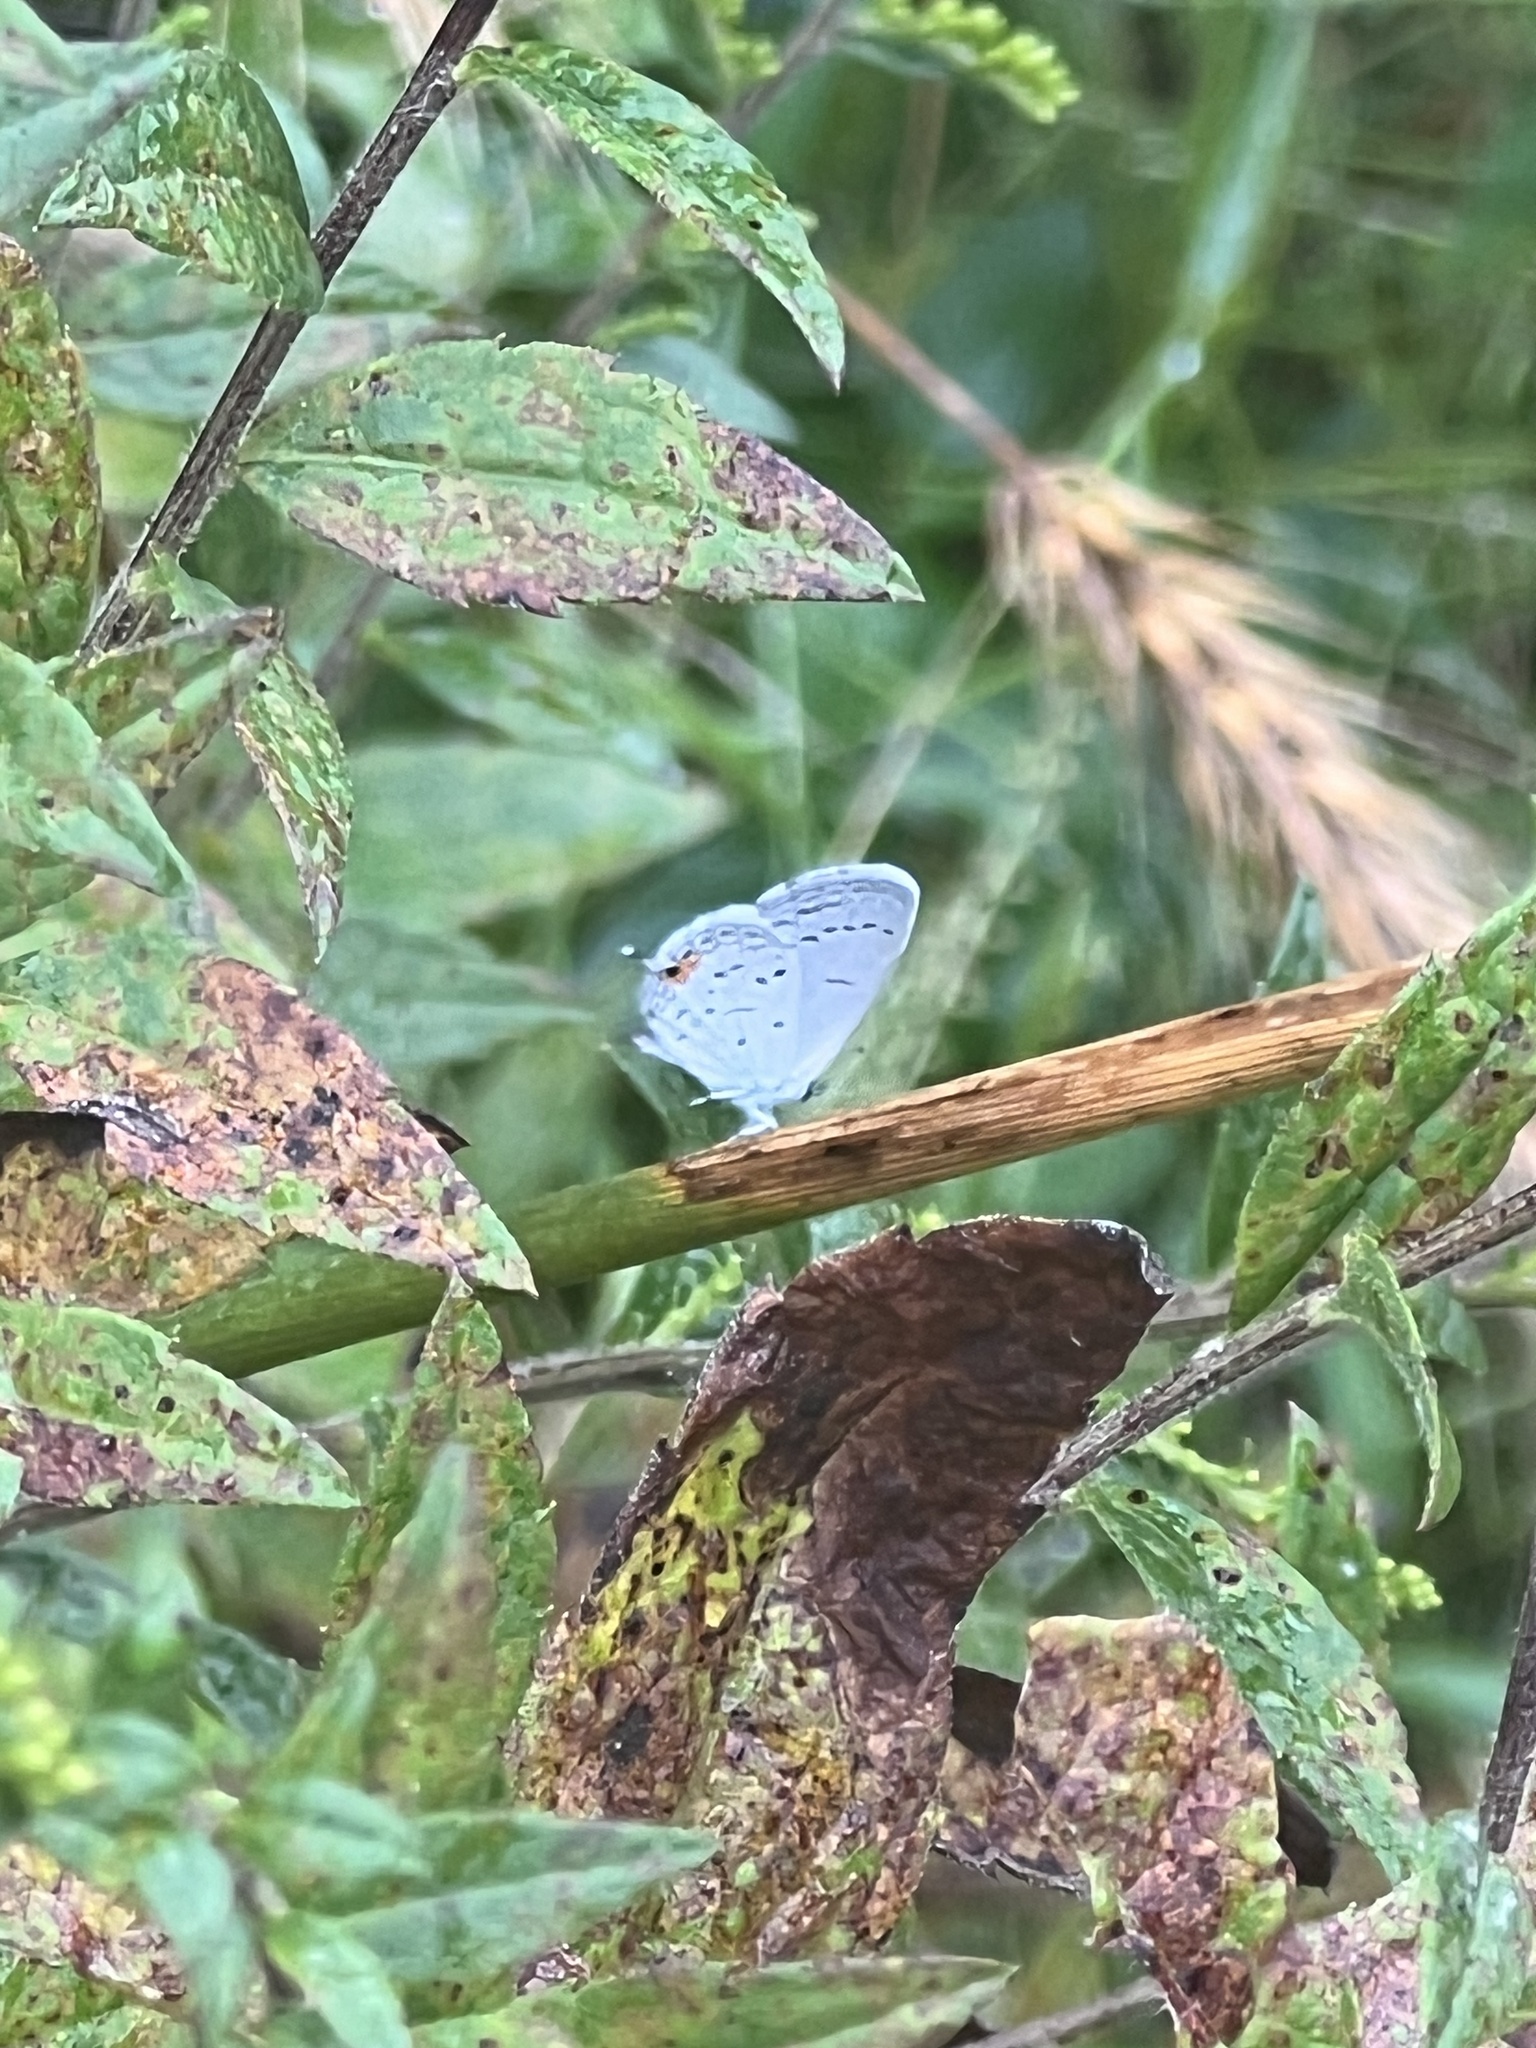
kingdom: Animalia
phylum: Arthropoda
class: Insecta
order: Lepidoptera
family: Lycaenidae
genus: Elkalyce
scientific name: Elkalyce comyntas
